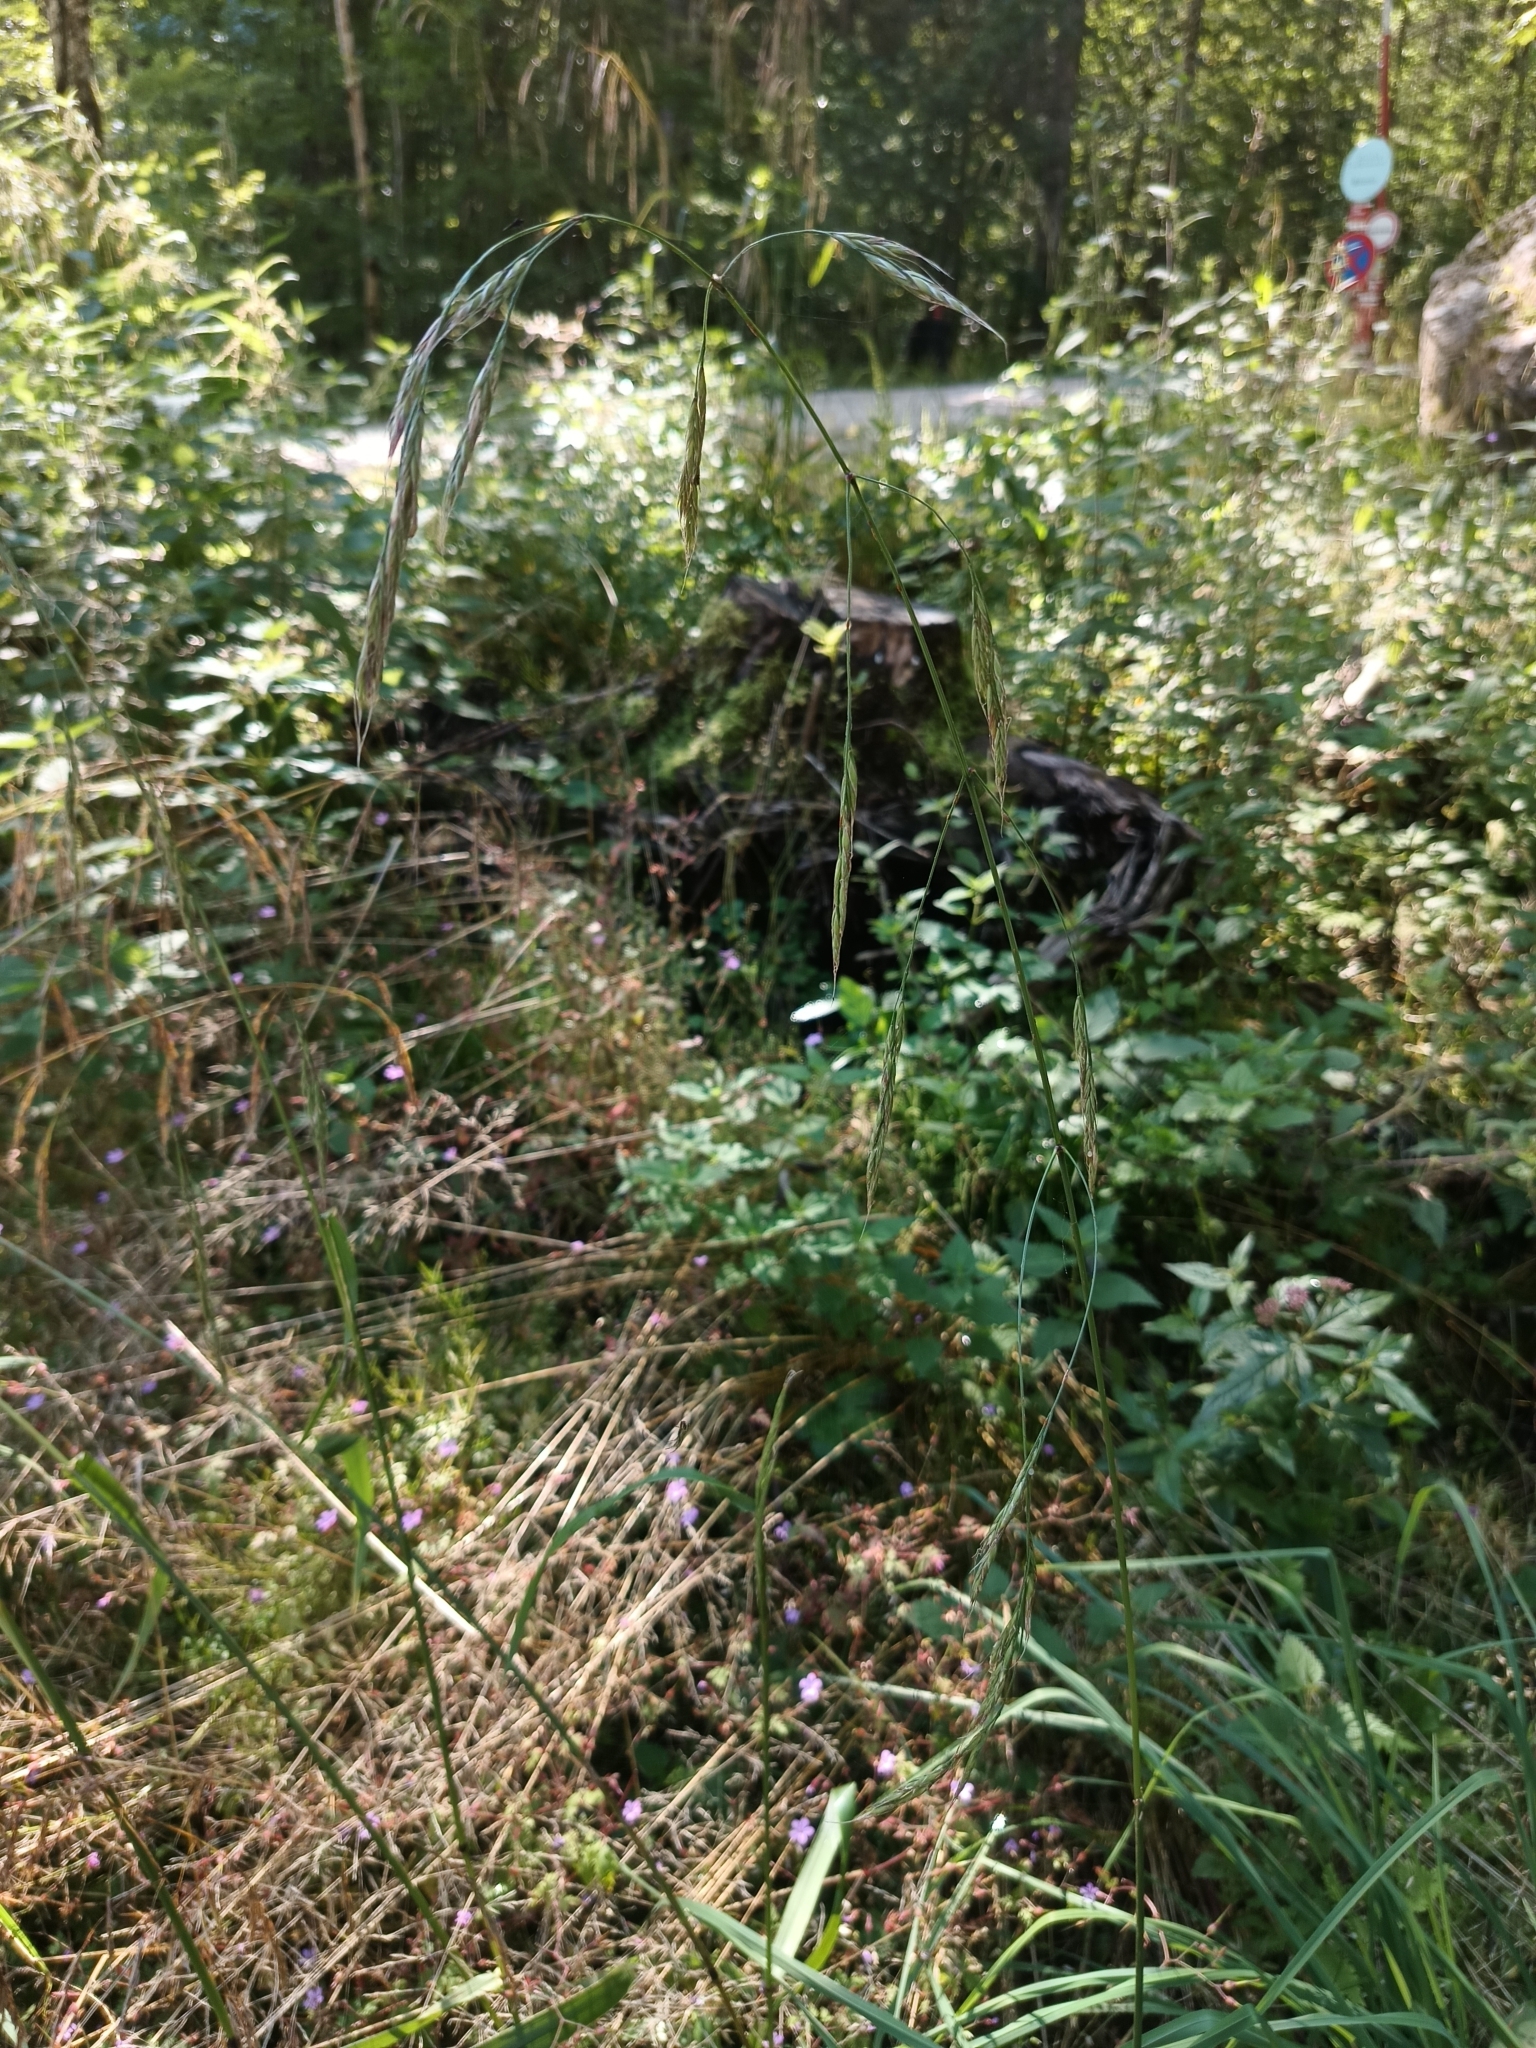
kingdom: Plantae
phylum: Tracheophyta
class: Liliopsida
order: Poales
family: Poaceae
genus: Lolium
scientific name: Lolium giganteum
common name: Giant fescue
